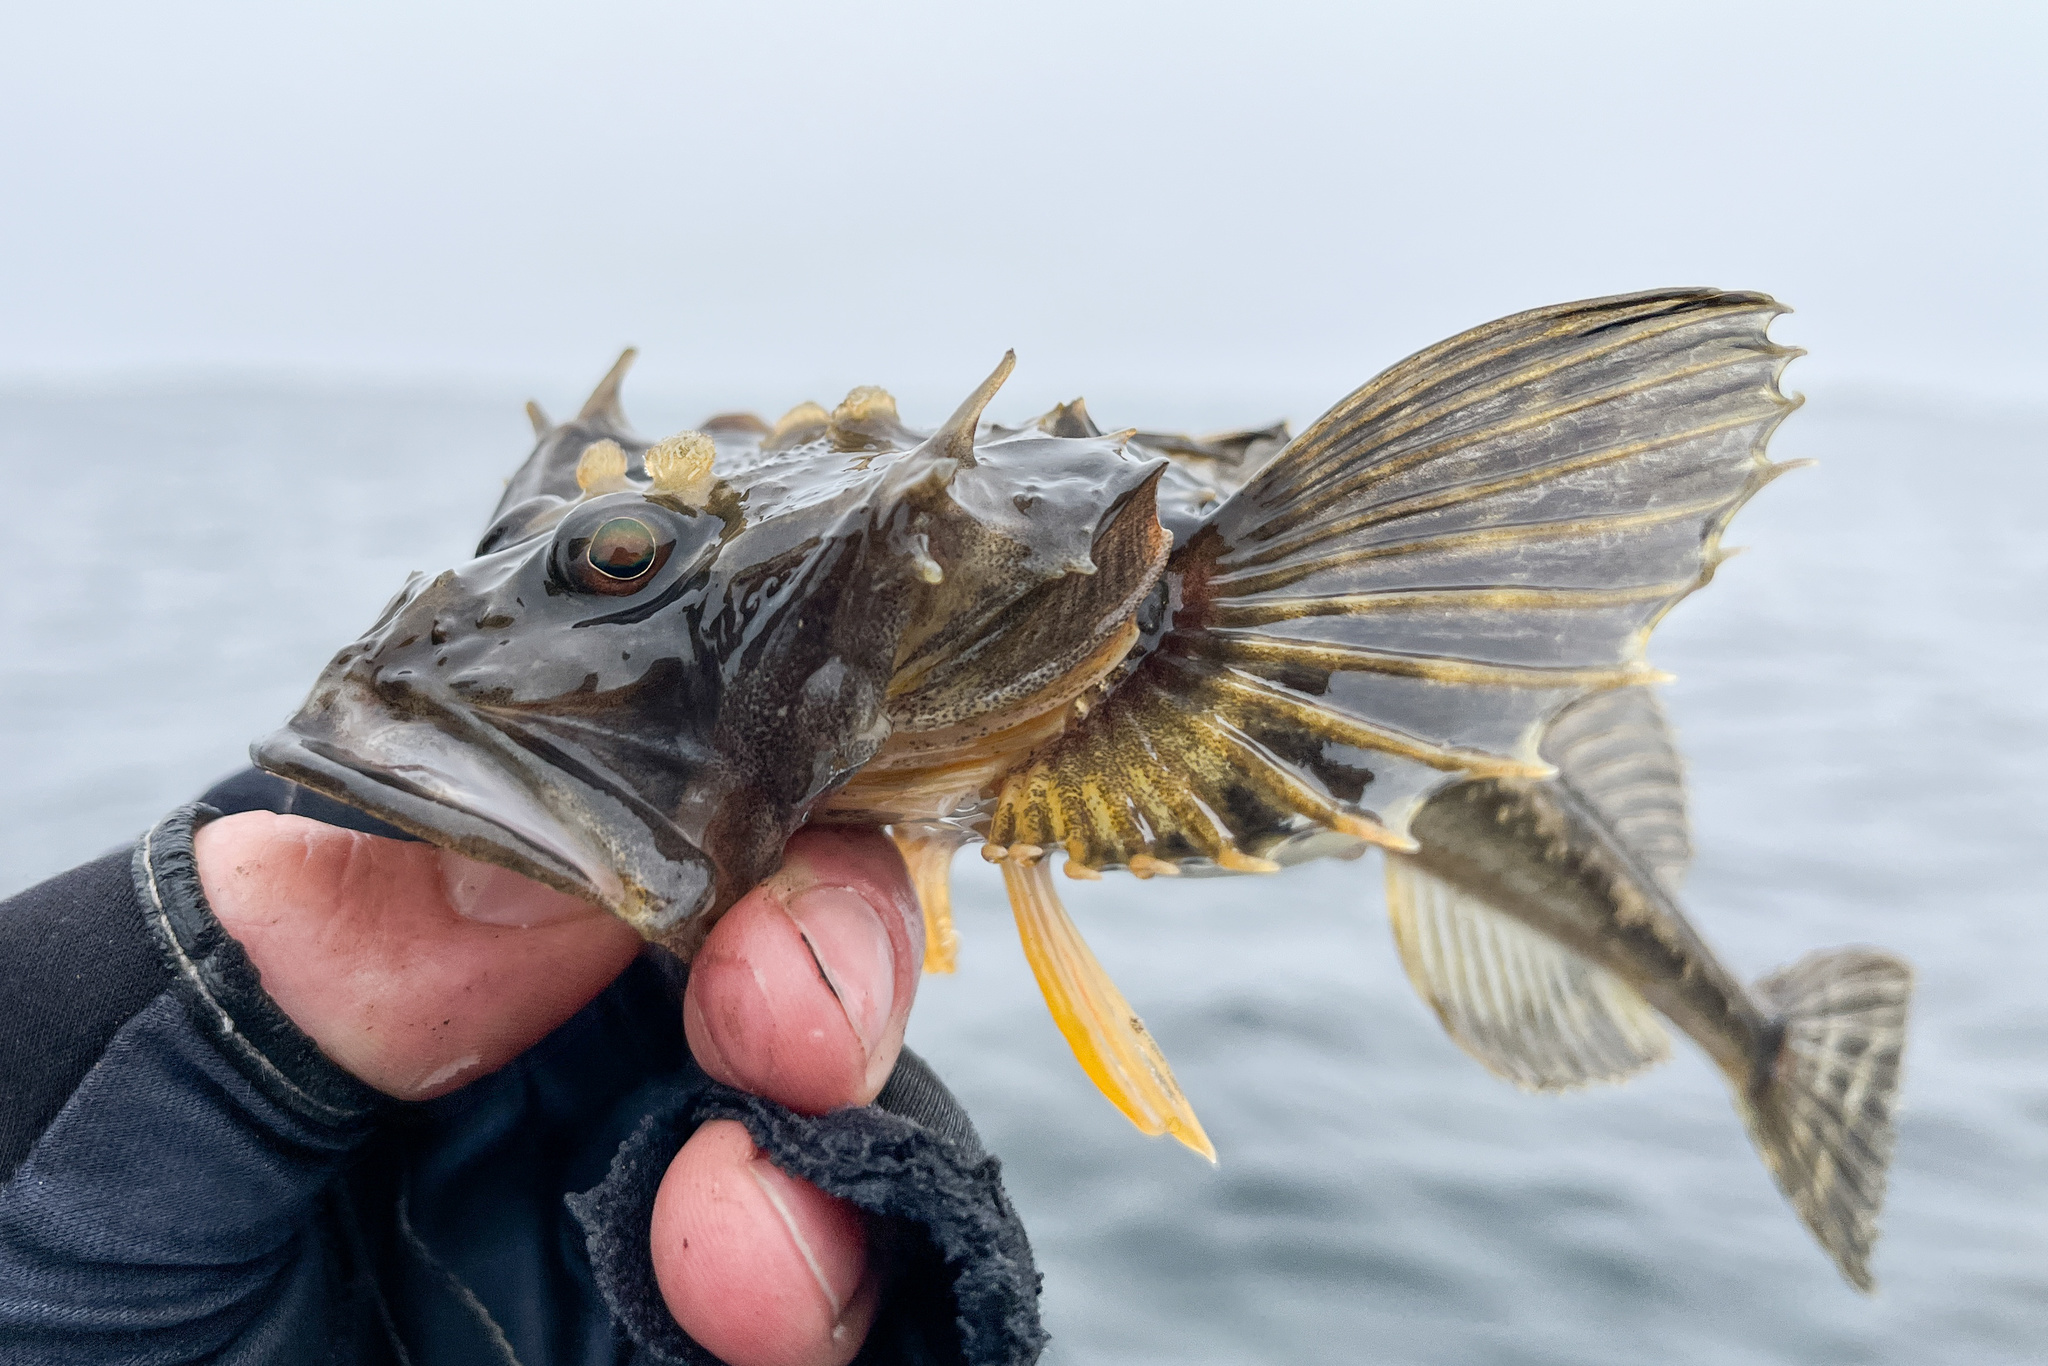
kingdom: Animalia
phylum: Chordata
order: Scorpaeniformes
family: Cottidae
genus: Myoxocephalus
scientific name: Myoxocephalus quadricornis
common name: Fourhorn sculpin
